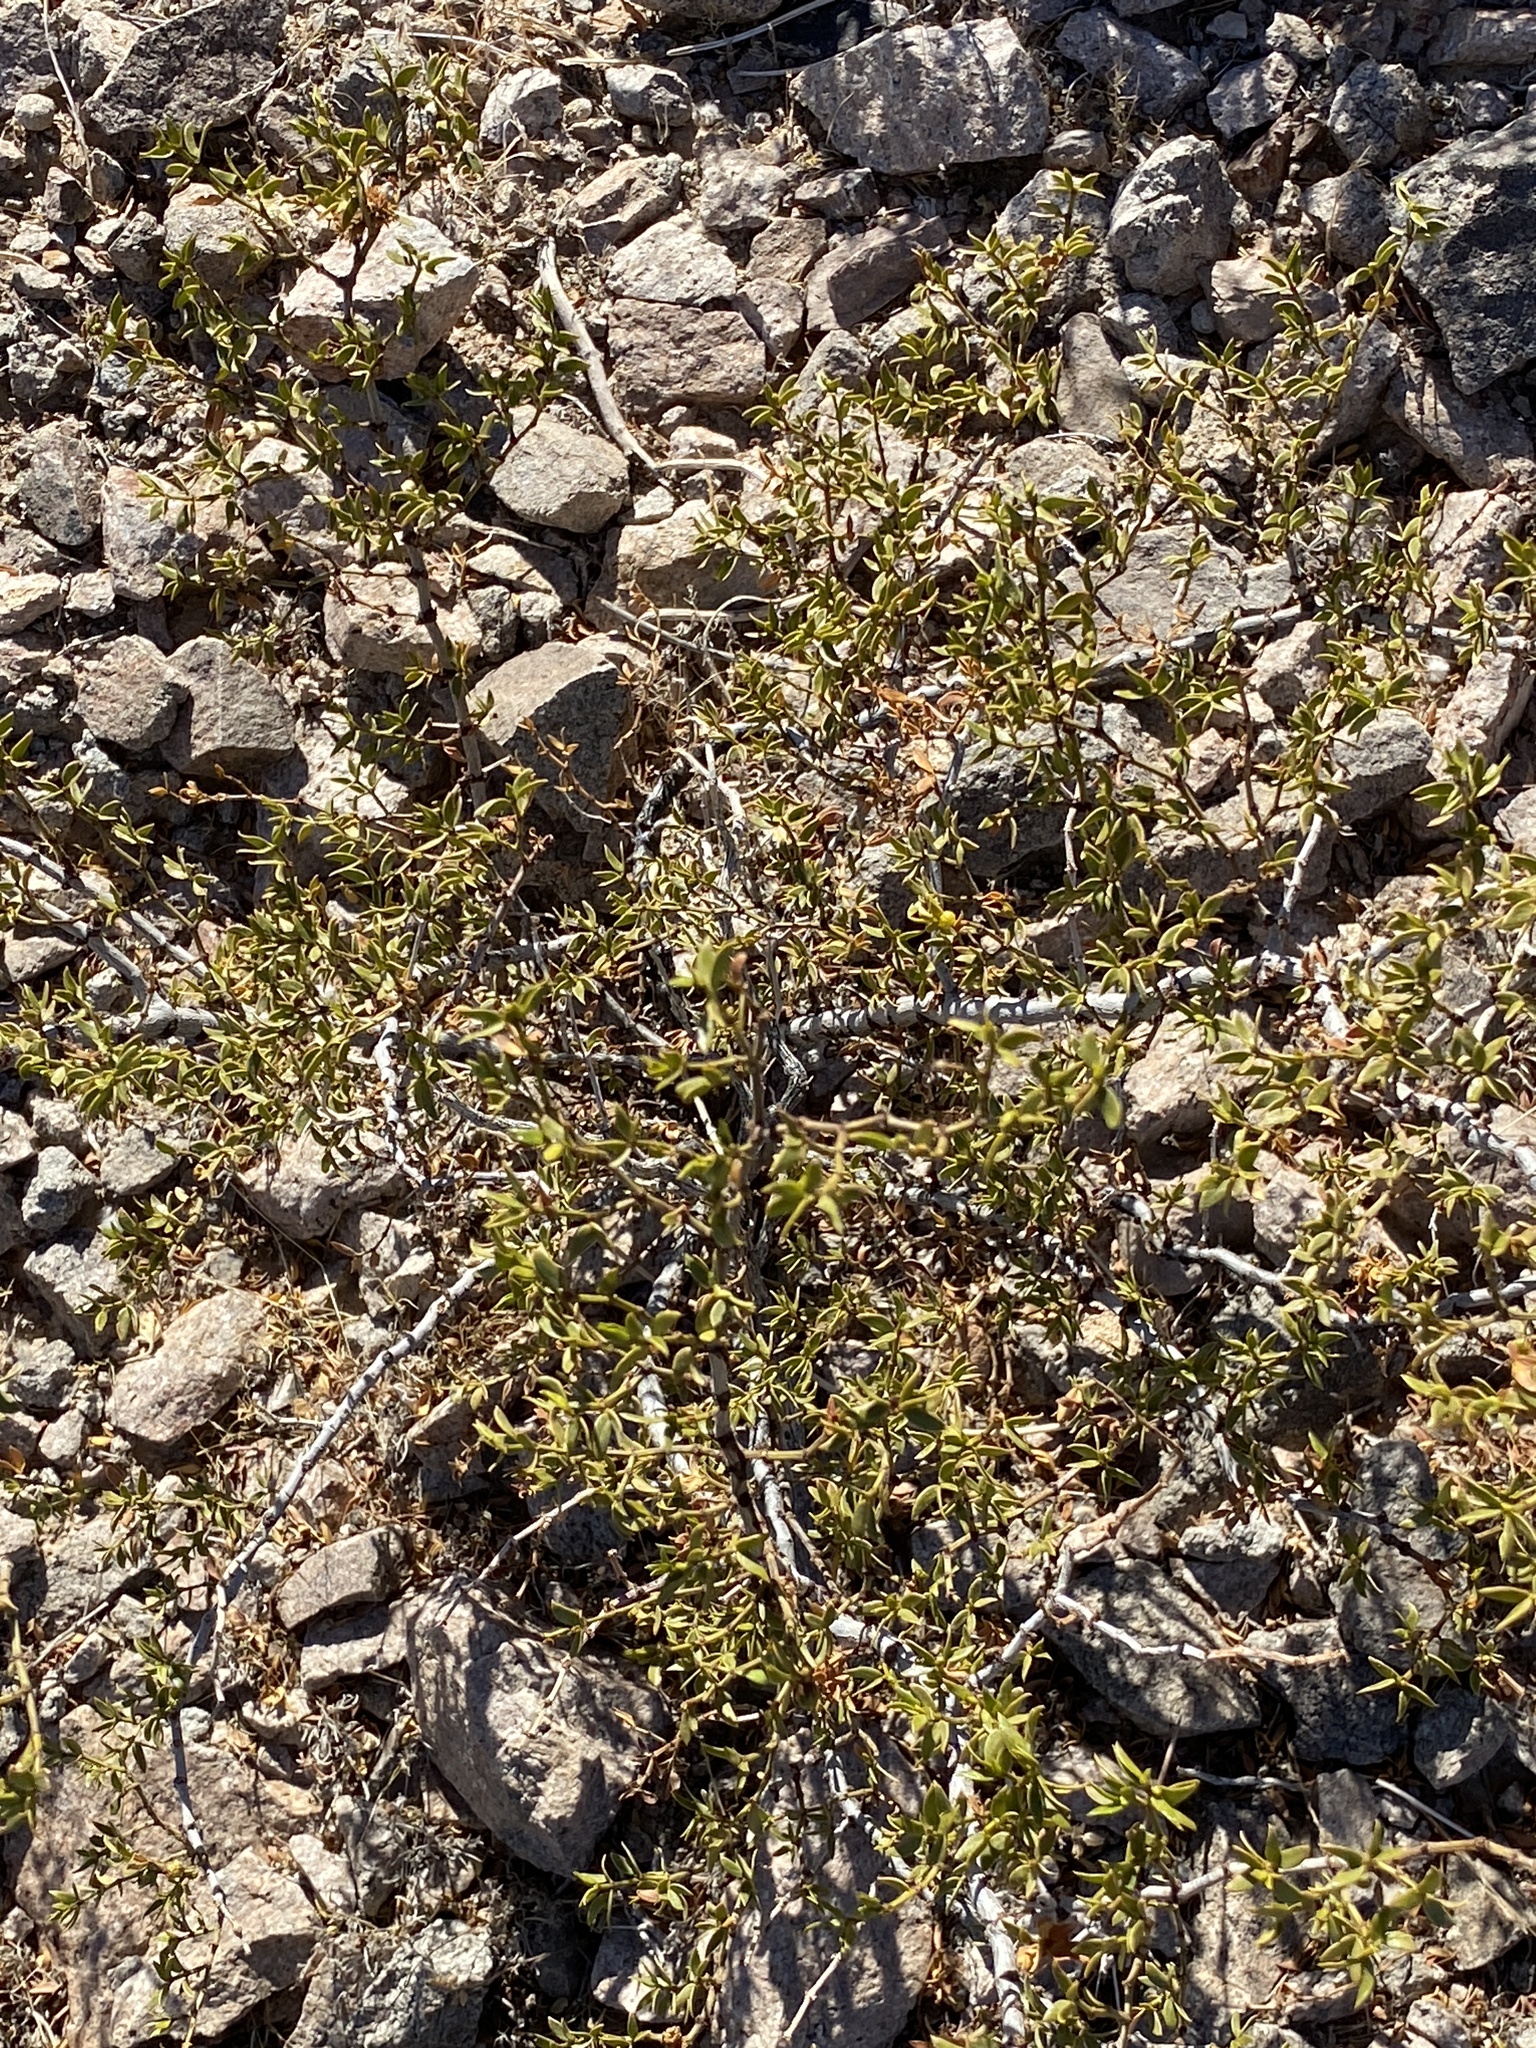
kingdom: Plantae
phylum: Tracheophyta
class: Magnoliopsida
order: Zygophyllales
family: Zygophyllaceae
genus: Larrea
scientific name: Larrea tridentata
